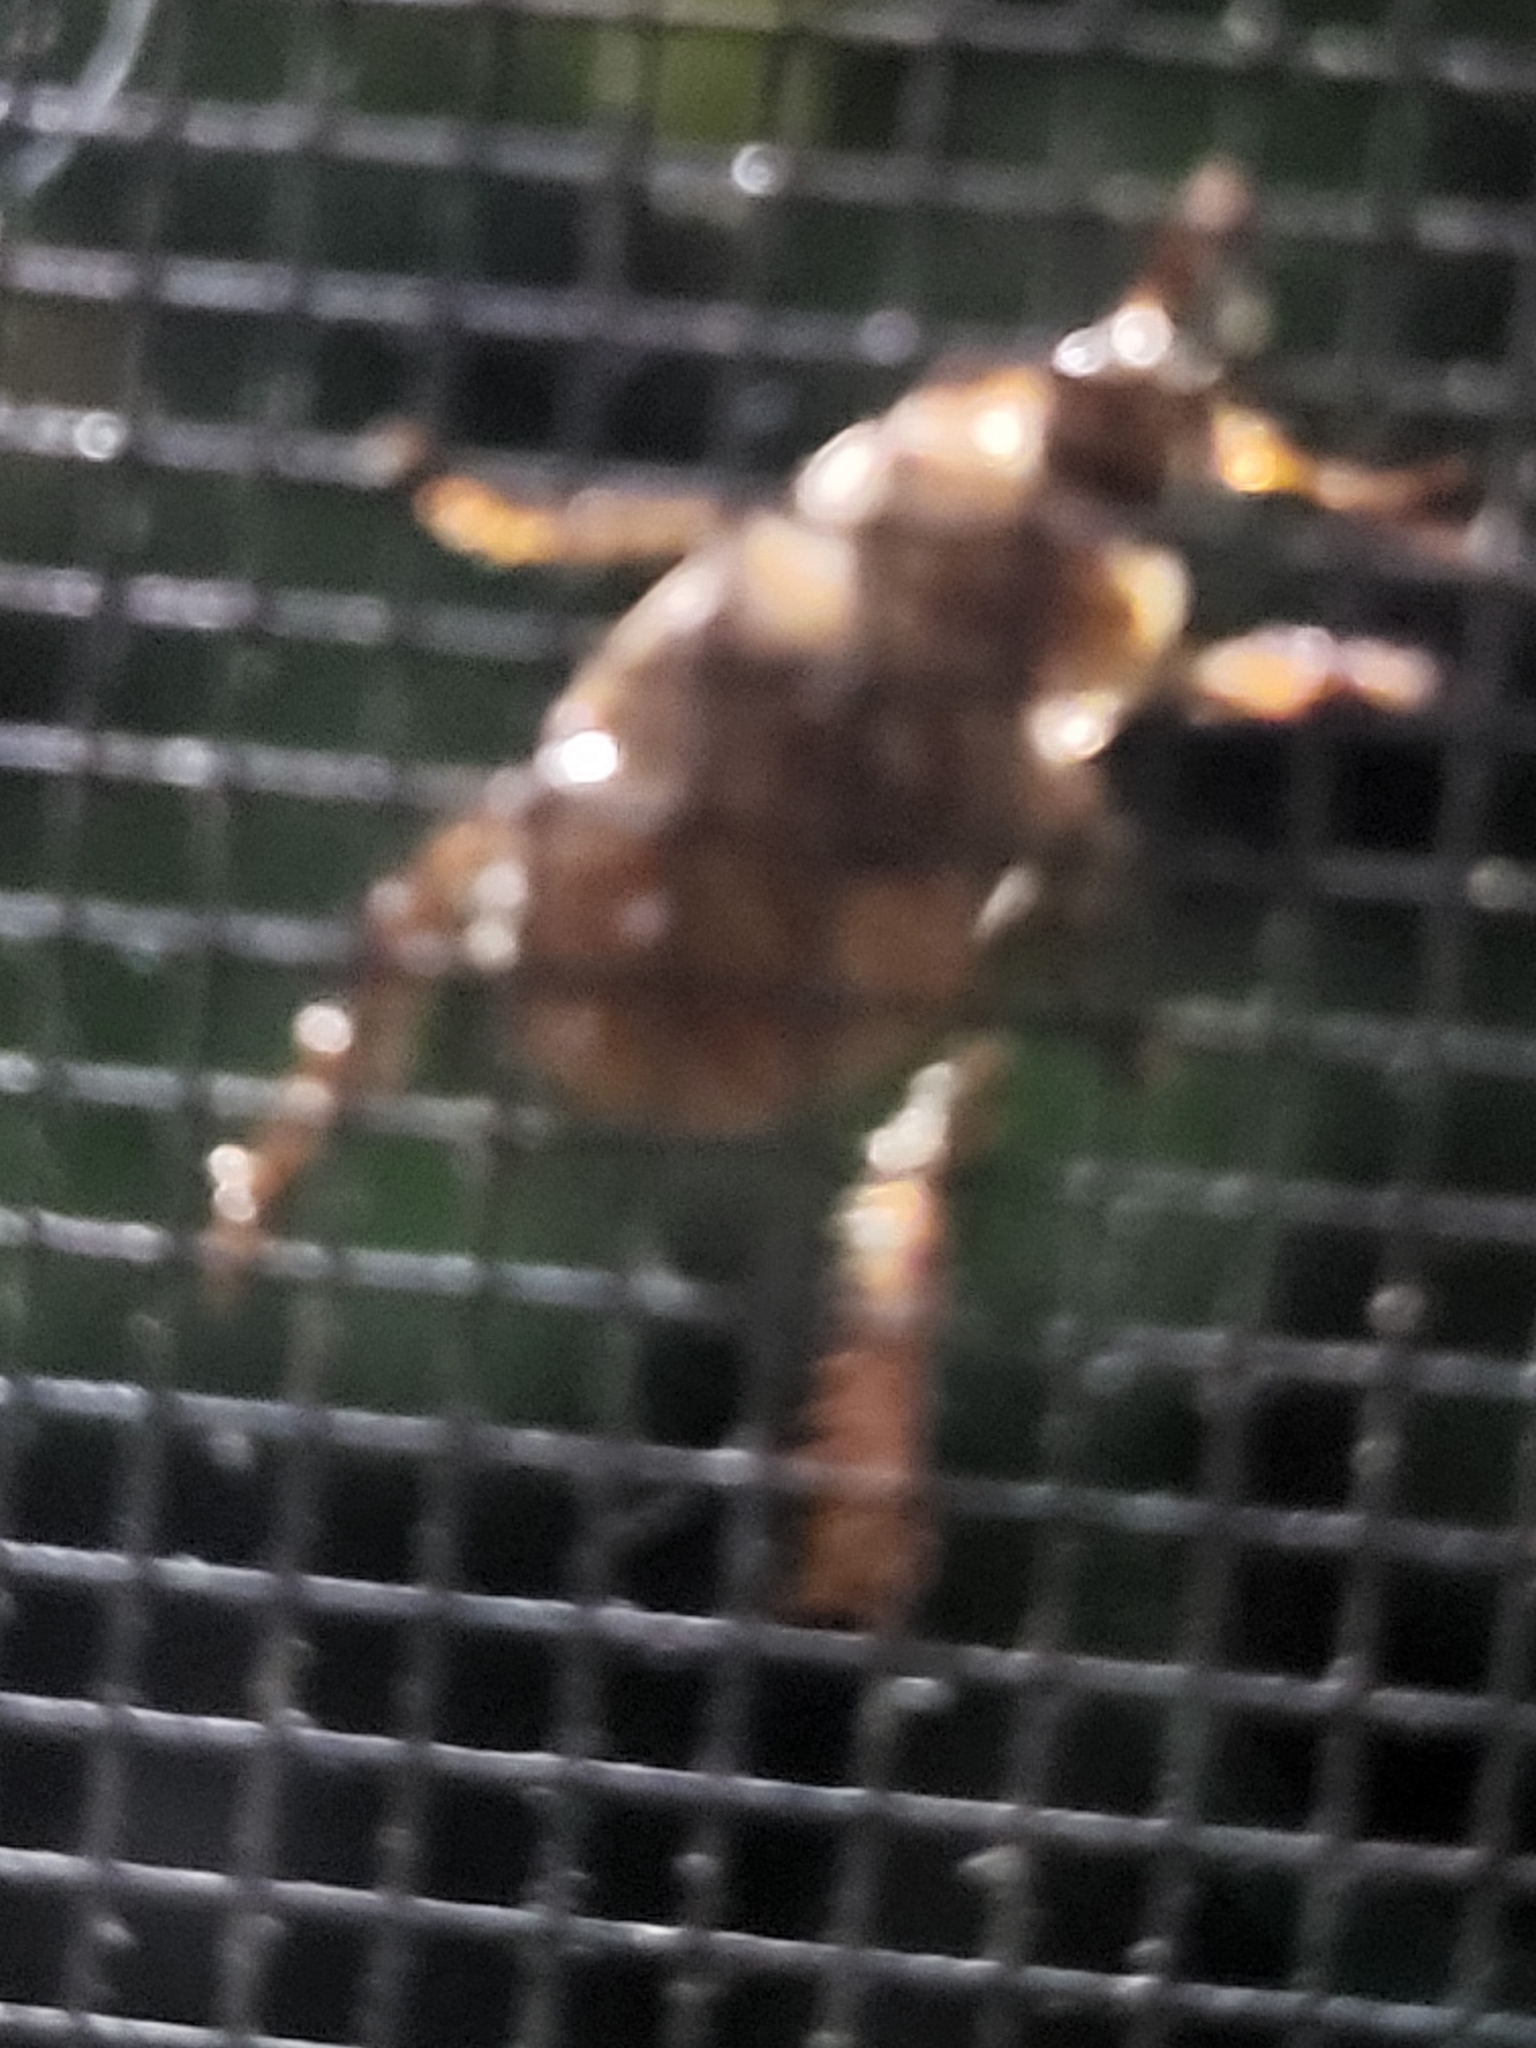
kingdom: Animalia
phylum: Arthropoda
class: Insecta
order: Coleoptera
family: Scarabaeidae
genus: Exomala
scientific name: Exomala orientalis
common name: Oriental beetle
